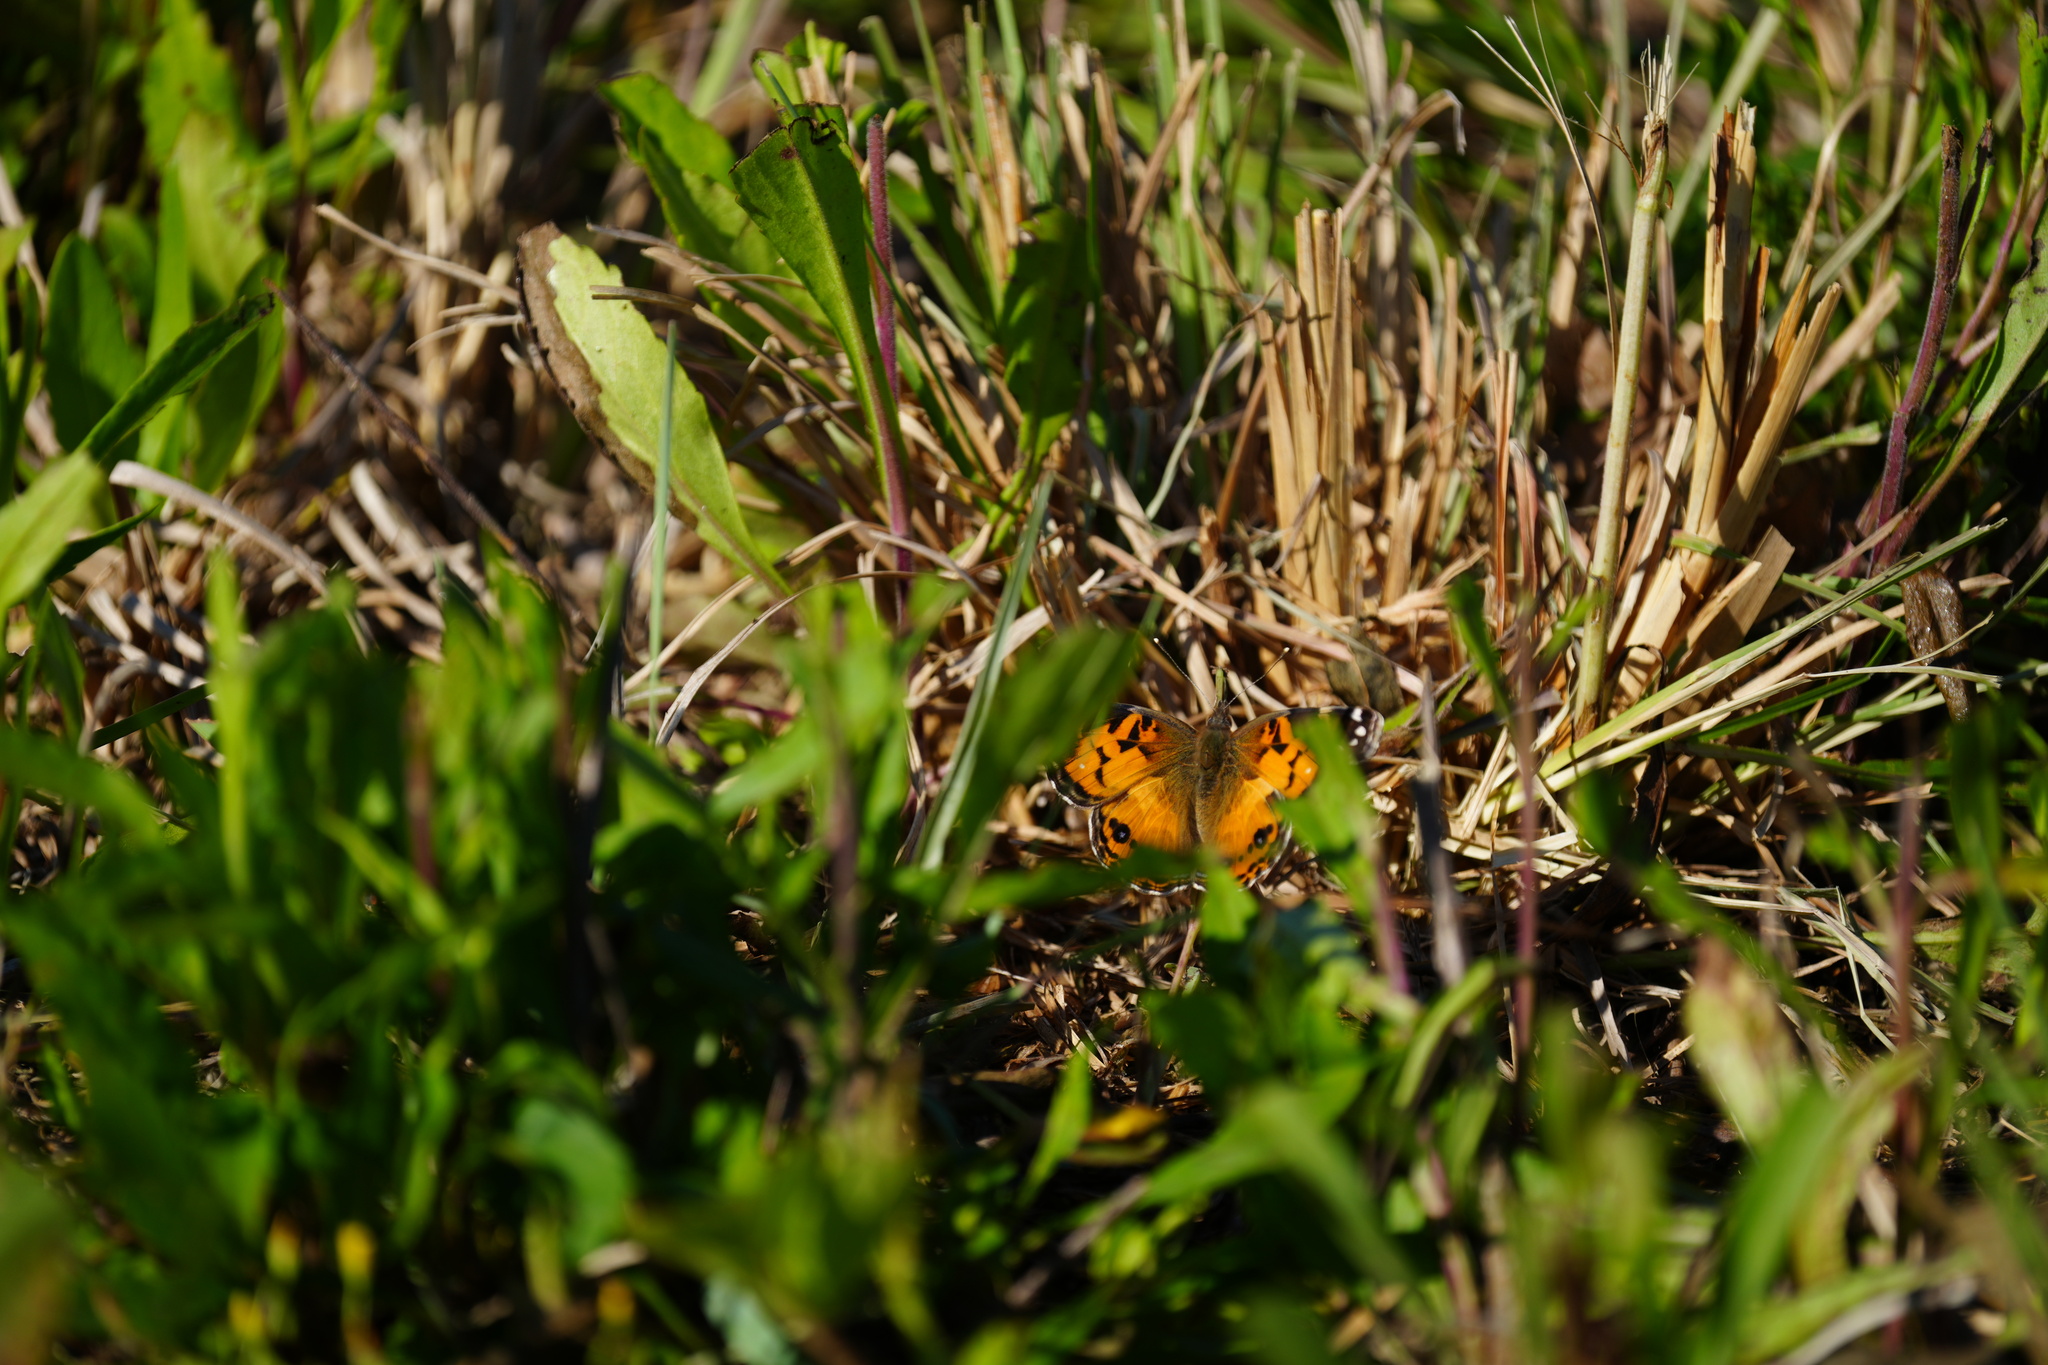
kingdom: Animalia
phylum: Arthropoda
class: Insecta
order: Lepidoptera
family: Nymphalidae
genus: Vanessa
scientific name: Vanessa virginiensis
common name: American lady
